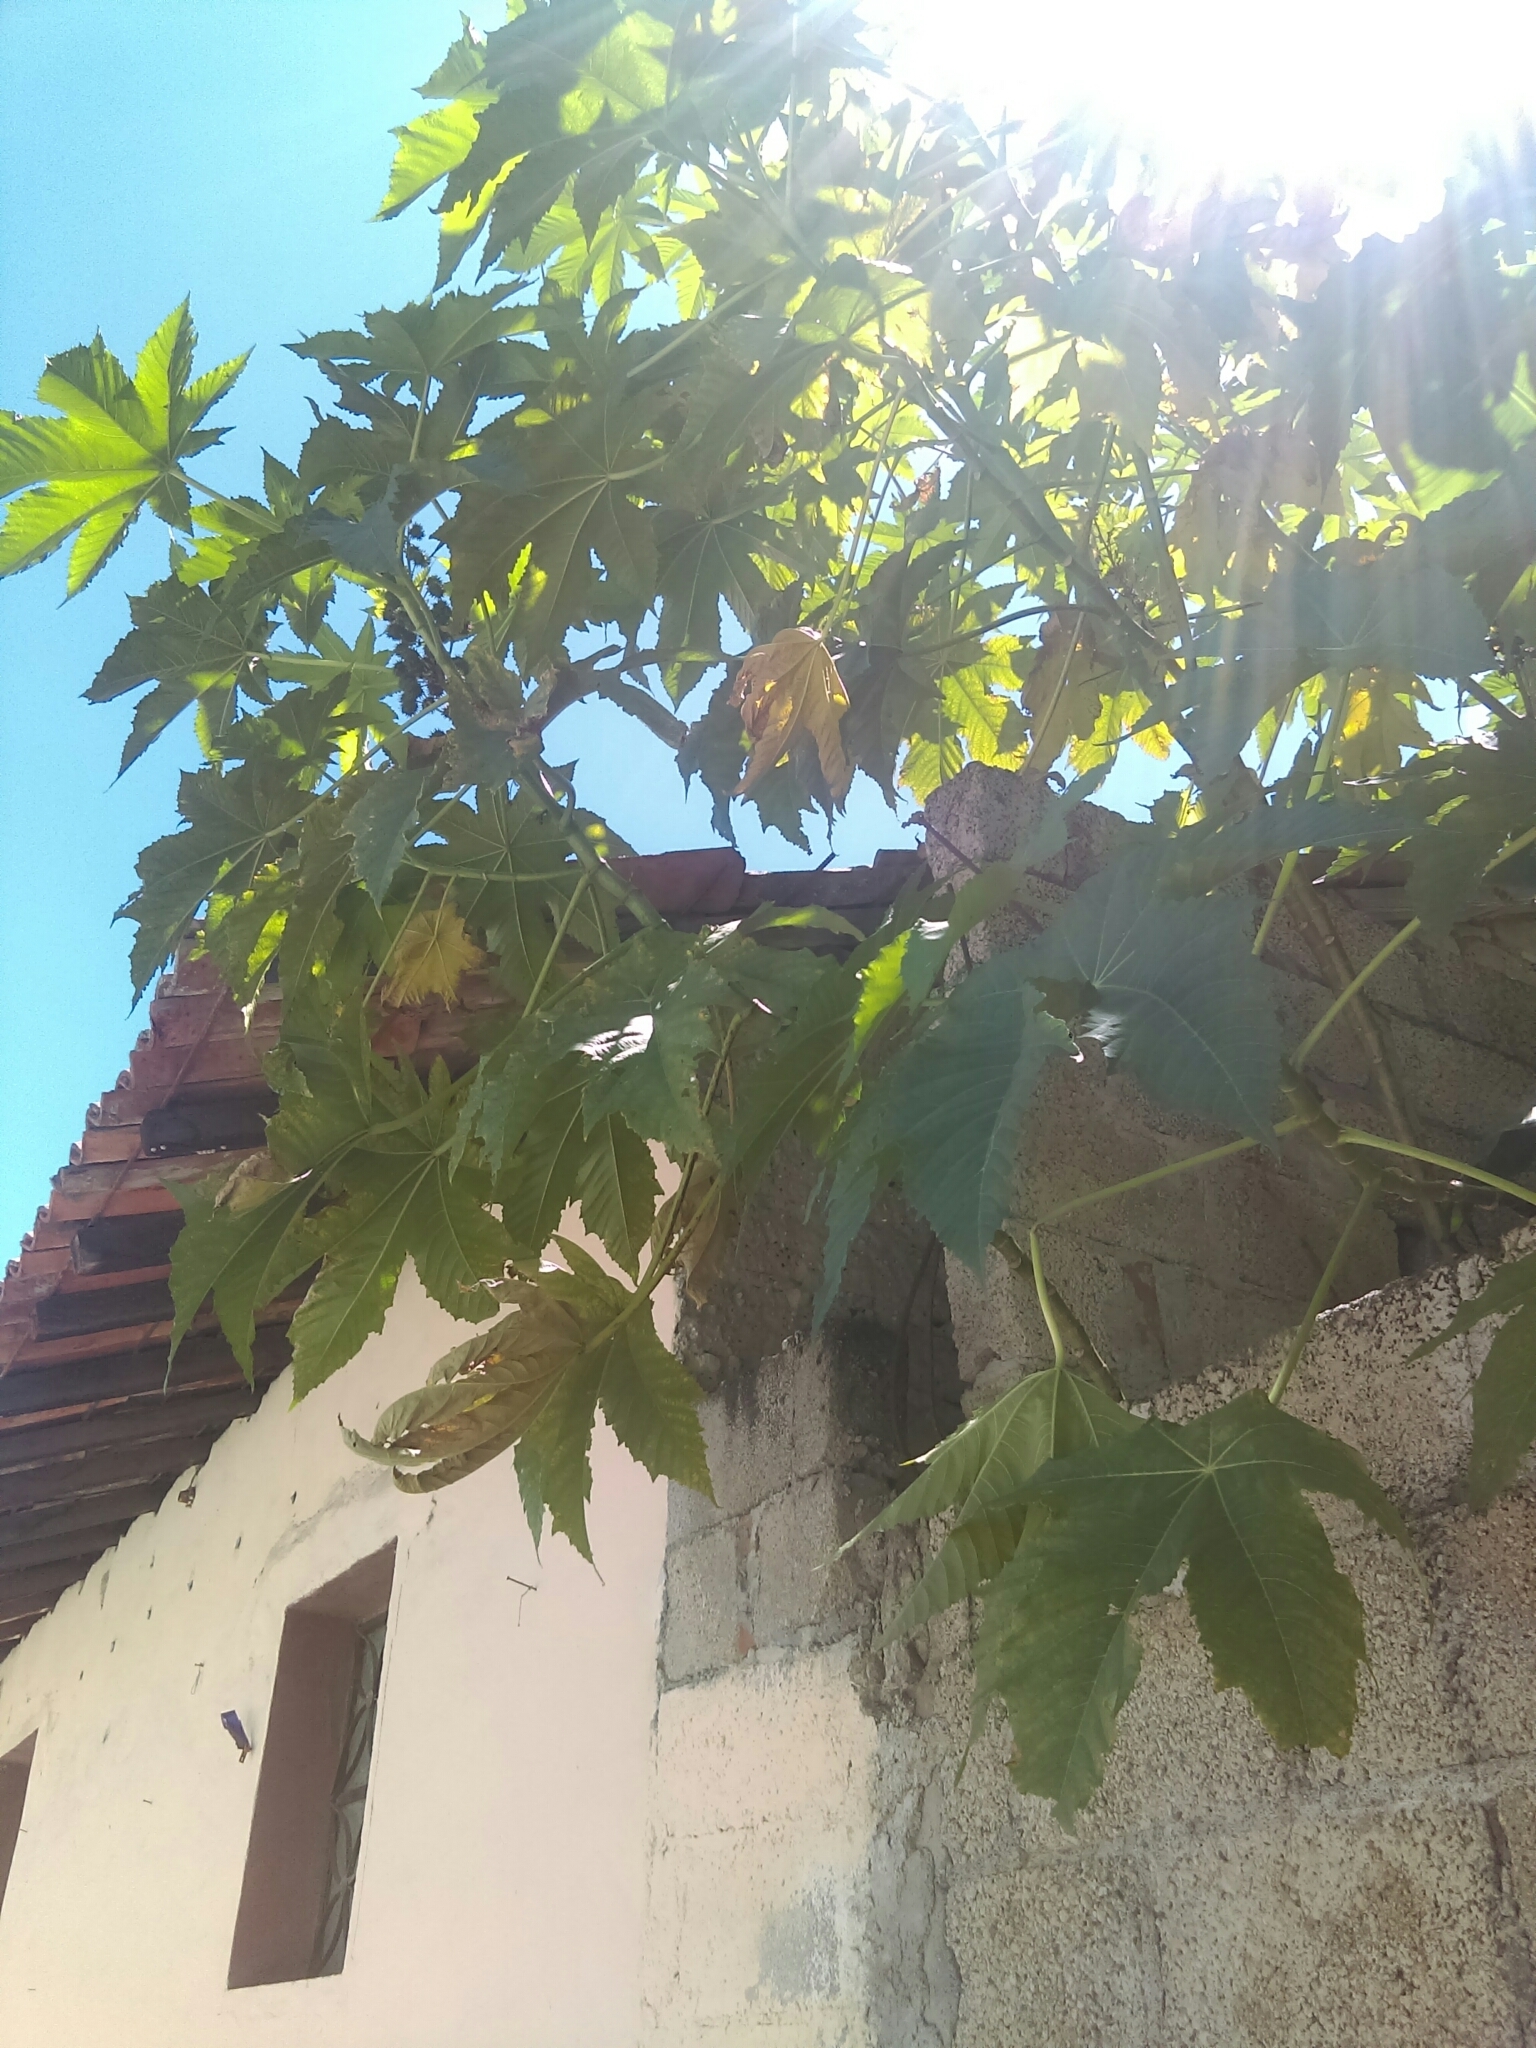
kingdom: Plantae
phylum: Tracheophyta
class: Magnoliopsida
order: Malpighiales
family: Euphorbiaceae
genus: Ricinus
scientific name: Ricinus communis
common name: Castor-oil-plant
